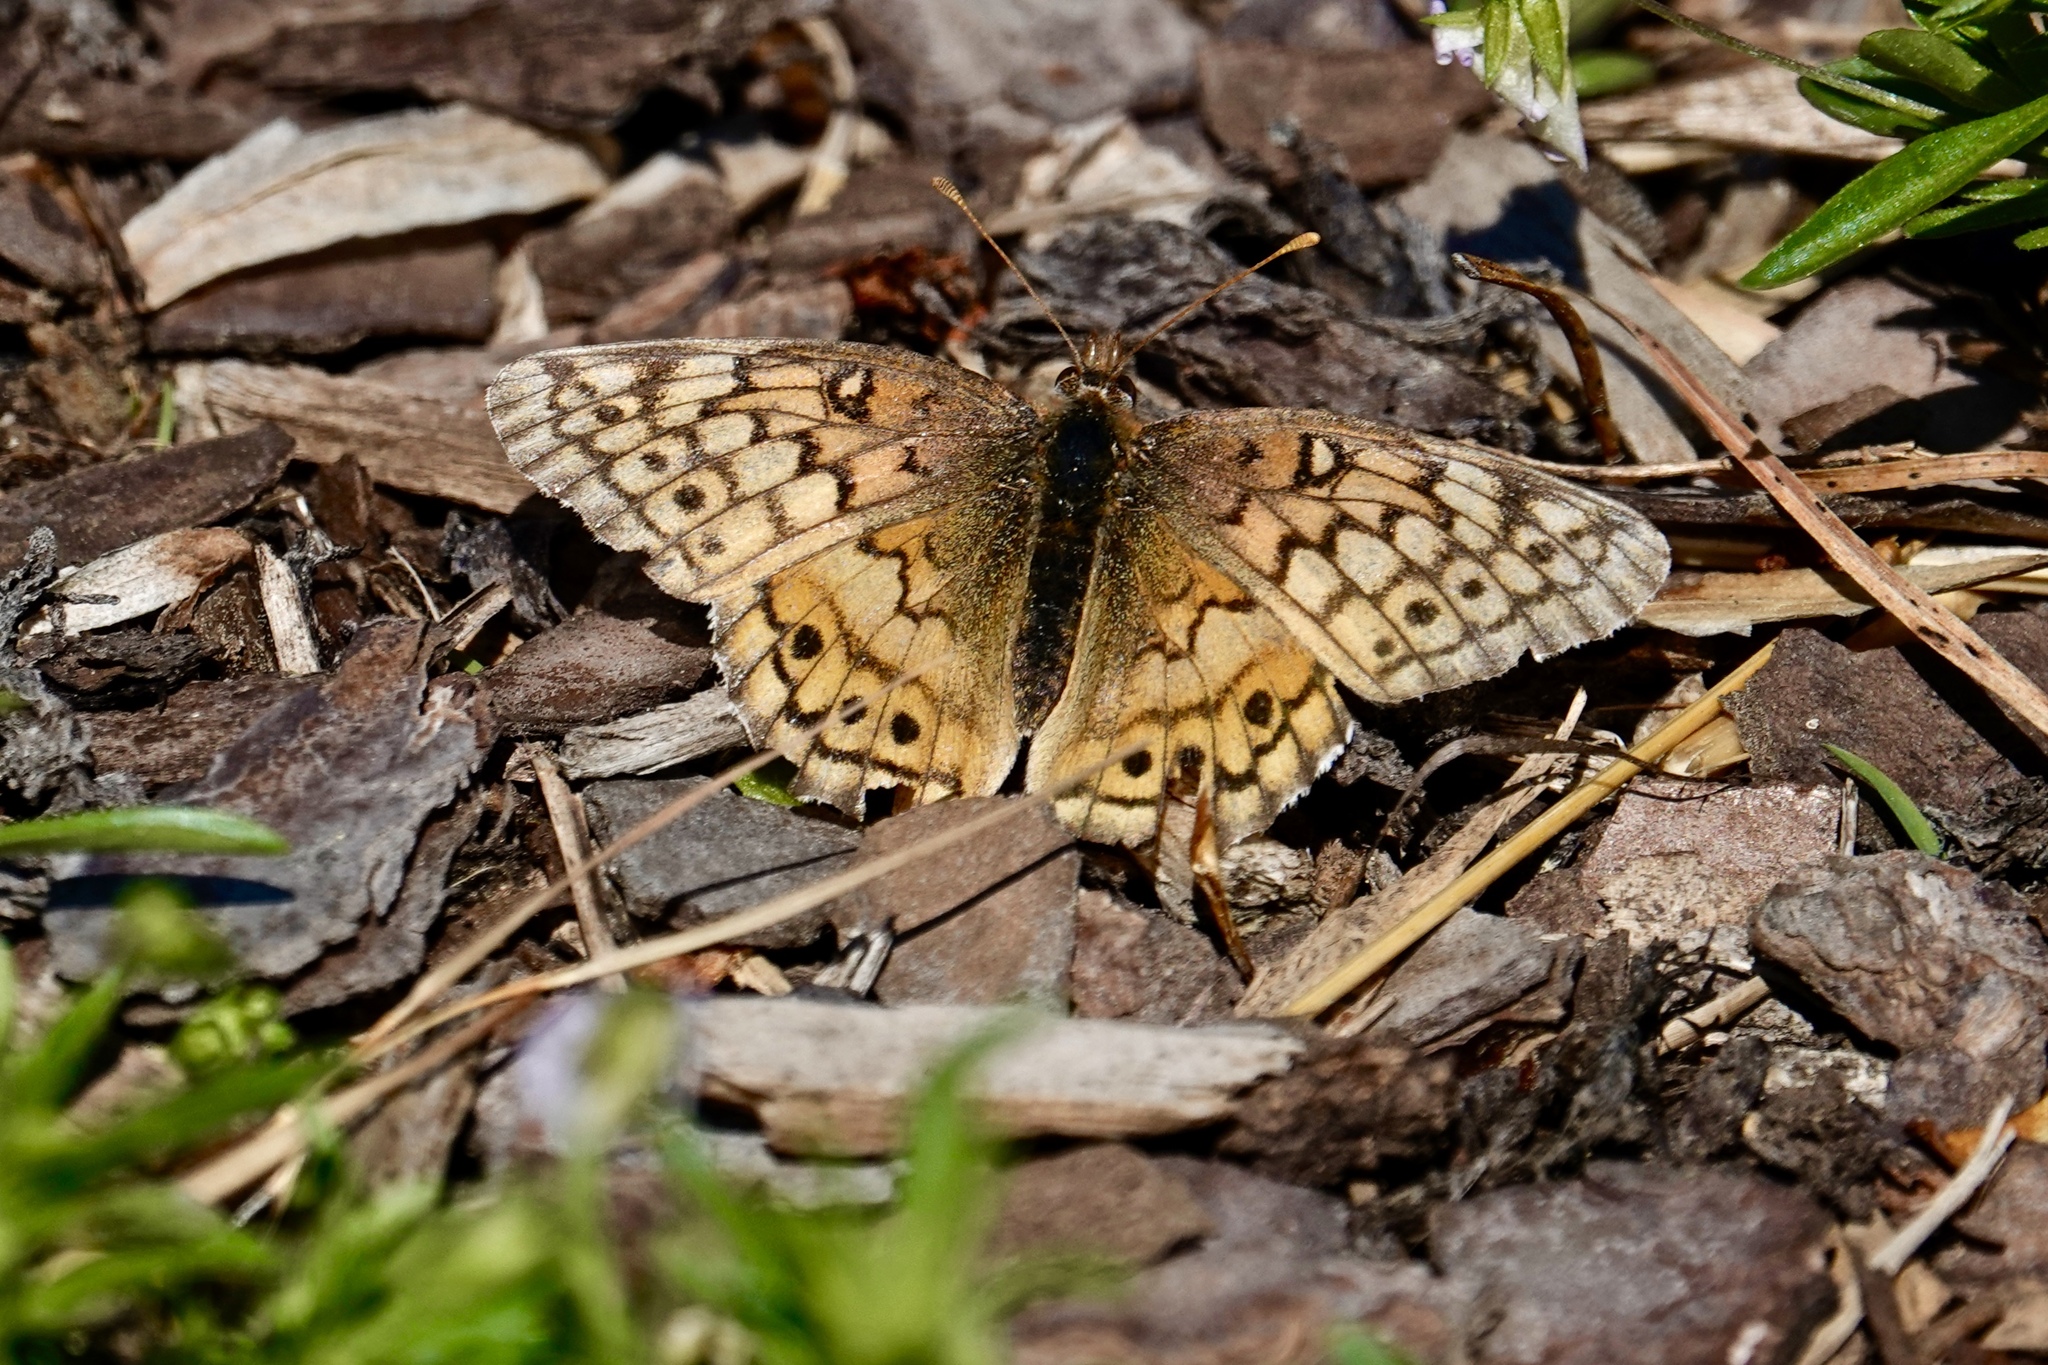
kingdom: Animalia
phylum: Arthropoda
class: Insecta
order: Lepidoptera
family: Nymphalidae
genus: Euptoieta
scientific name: Euptoieta claudia
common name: Variegated fritillary
